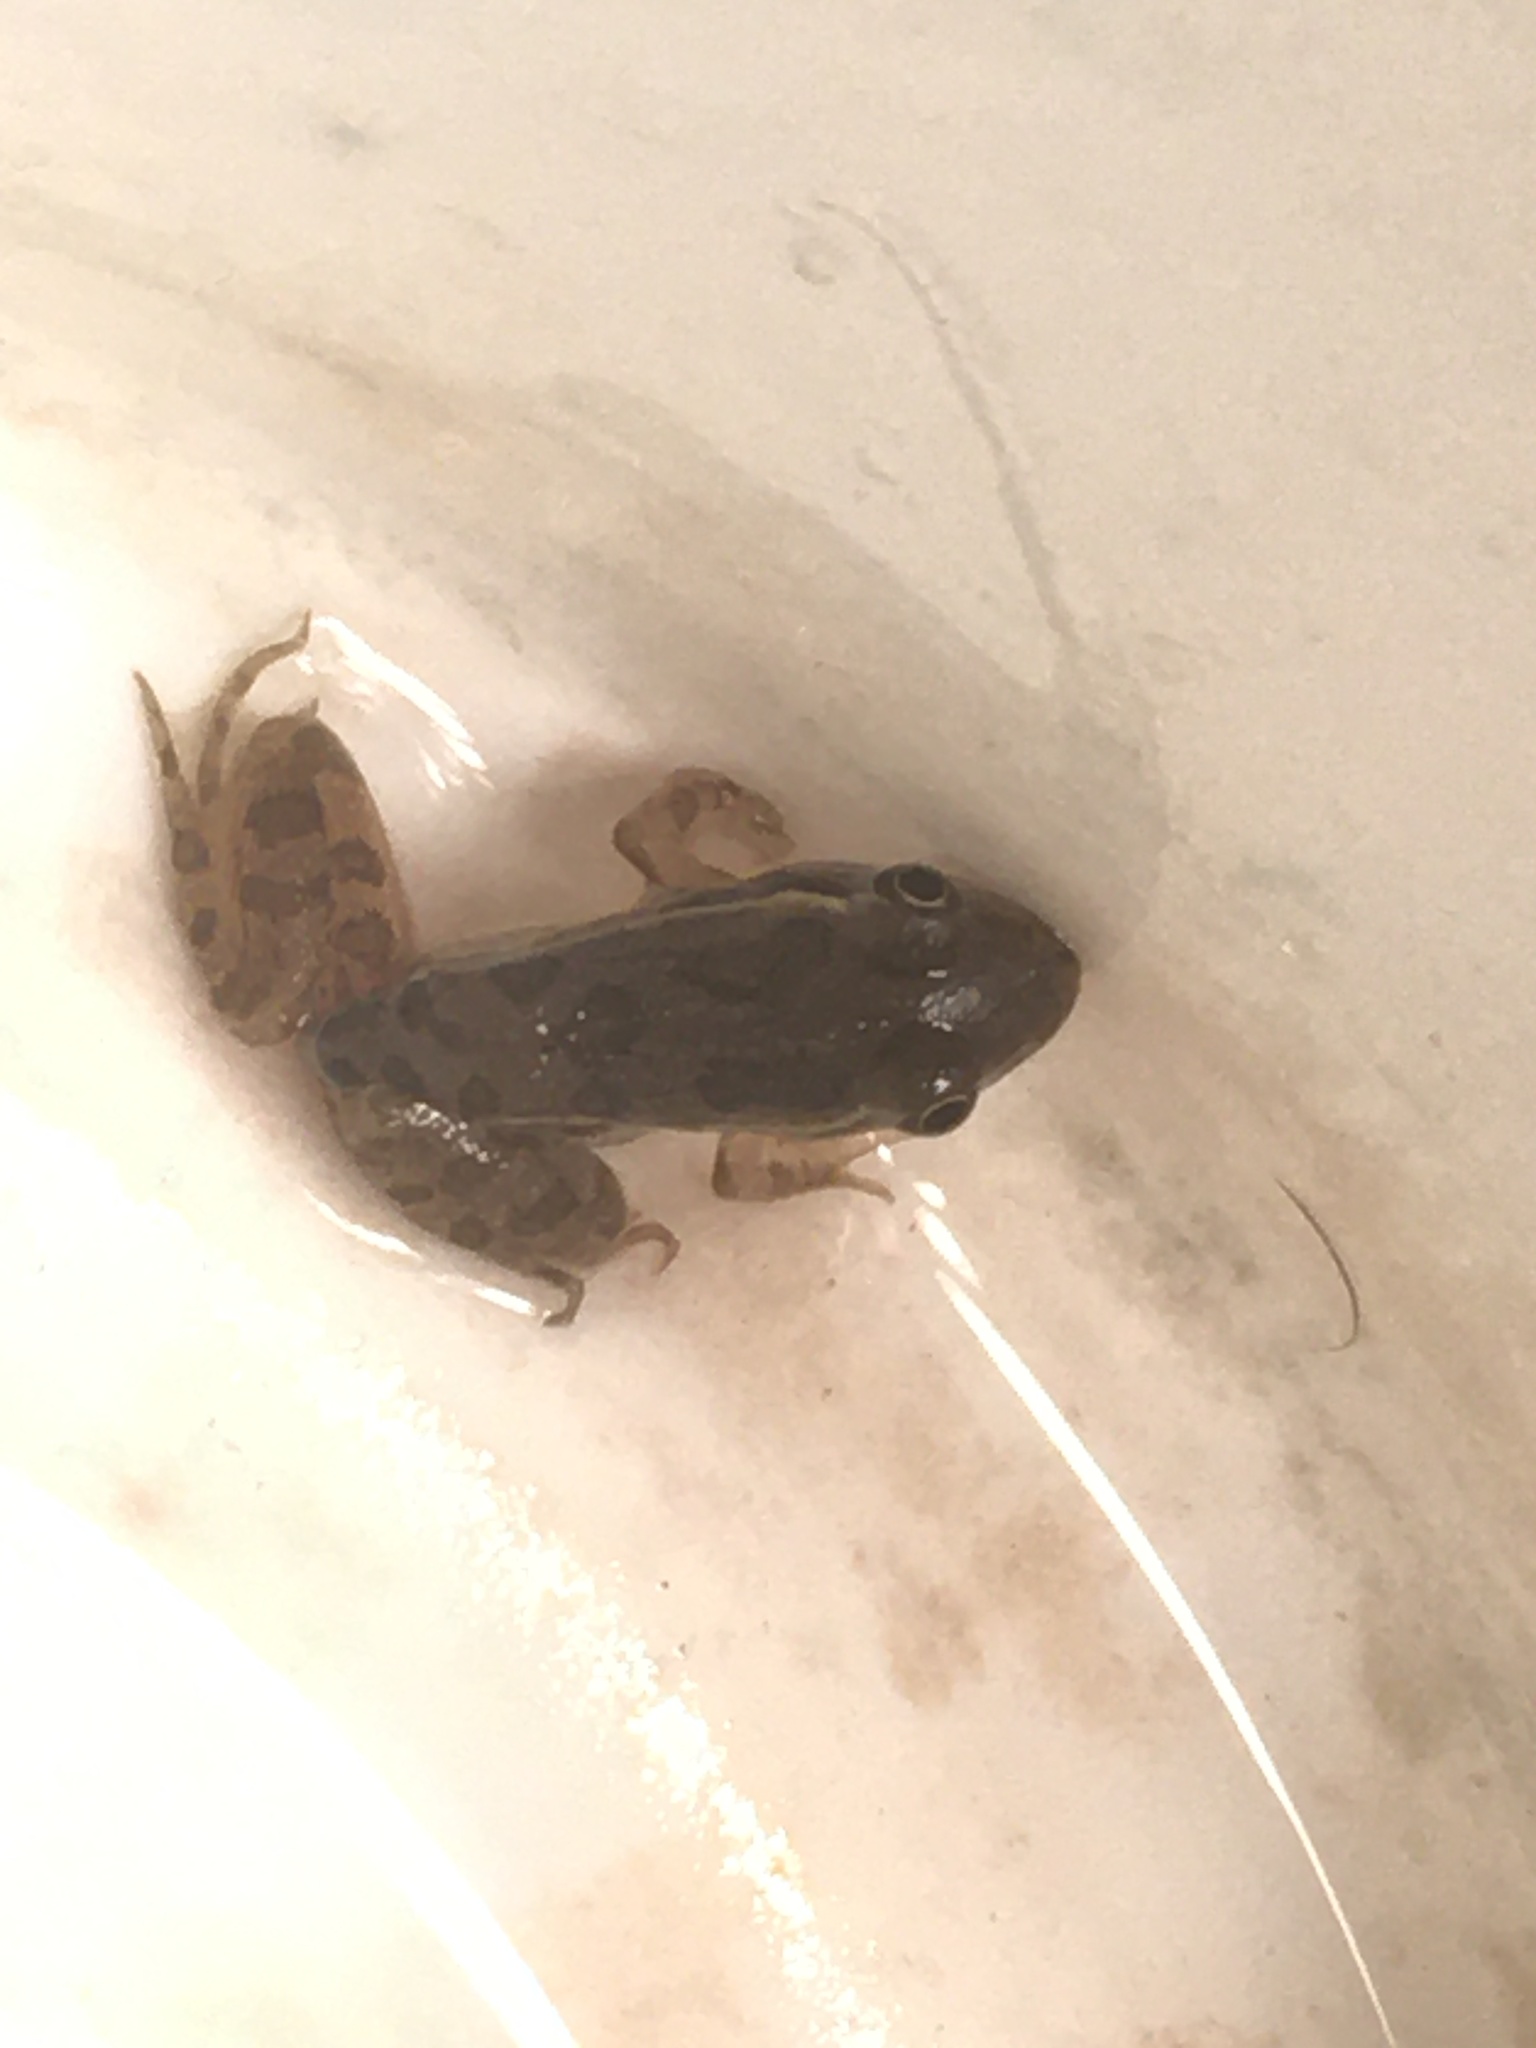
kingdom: Animalia
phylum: Chordata
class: Amphibia
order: Anura
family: Ranidae
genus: Lithobates
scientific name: Lithobates berlandieri
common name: Rio grande leopard frog
